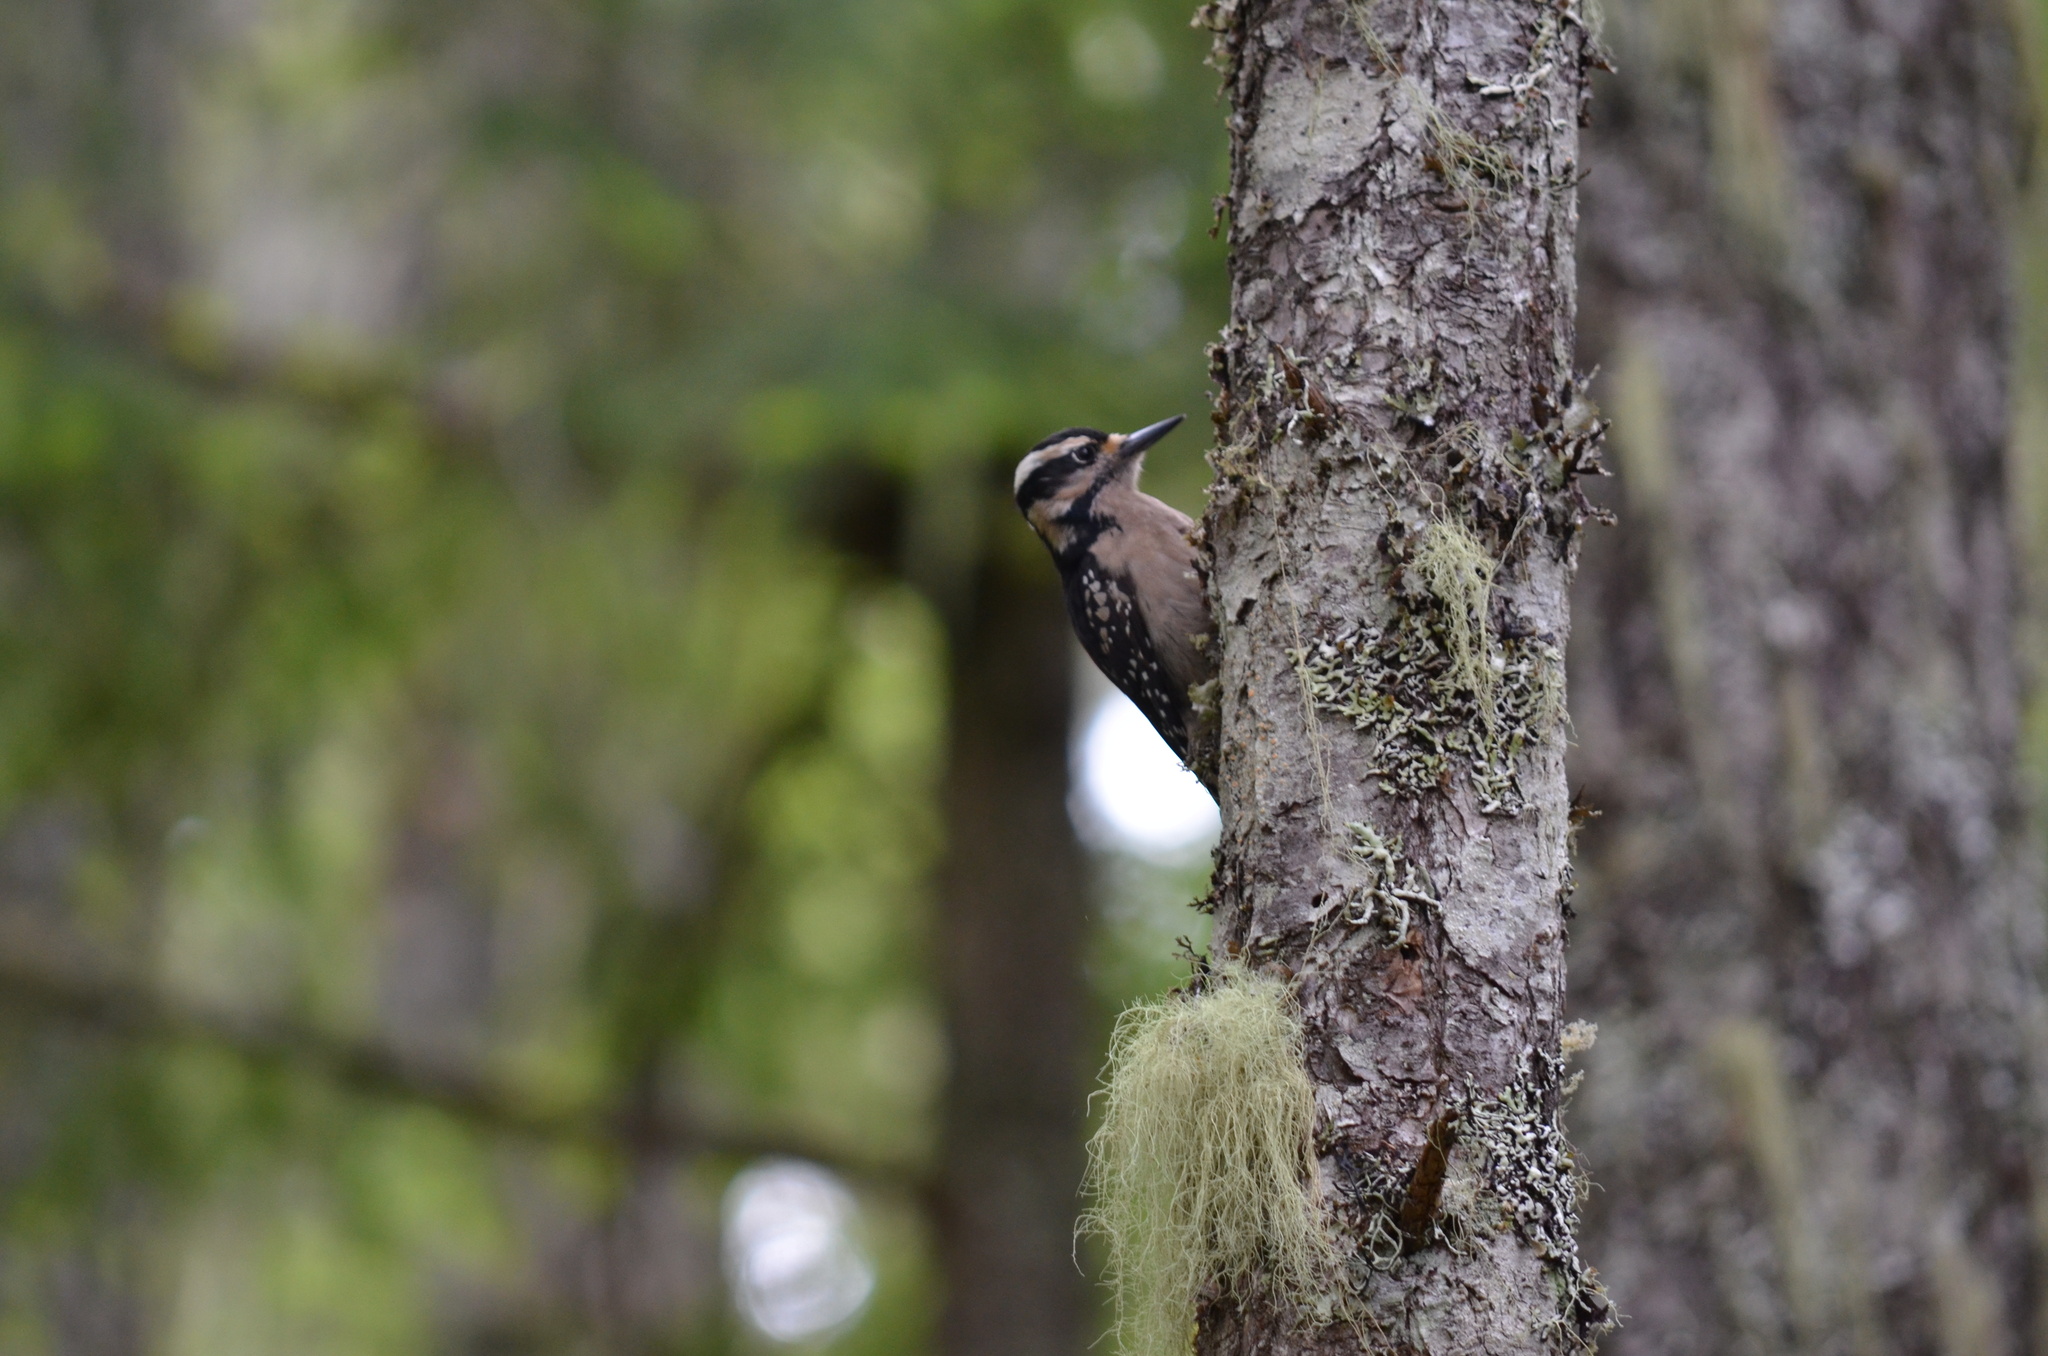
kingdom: Animalia
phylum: Chordata
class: Aves
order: Piciformes
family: Picidae
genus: Leuconotopicus
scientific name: Leuconotopicus villosus
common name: Hairy woodpecker
